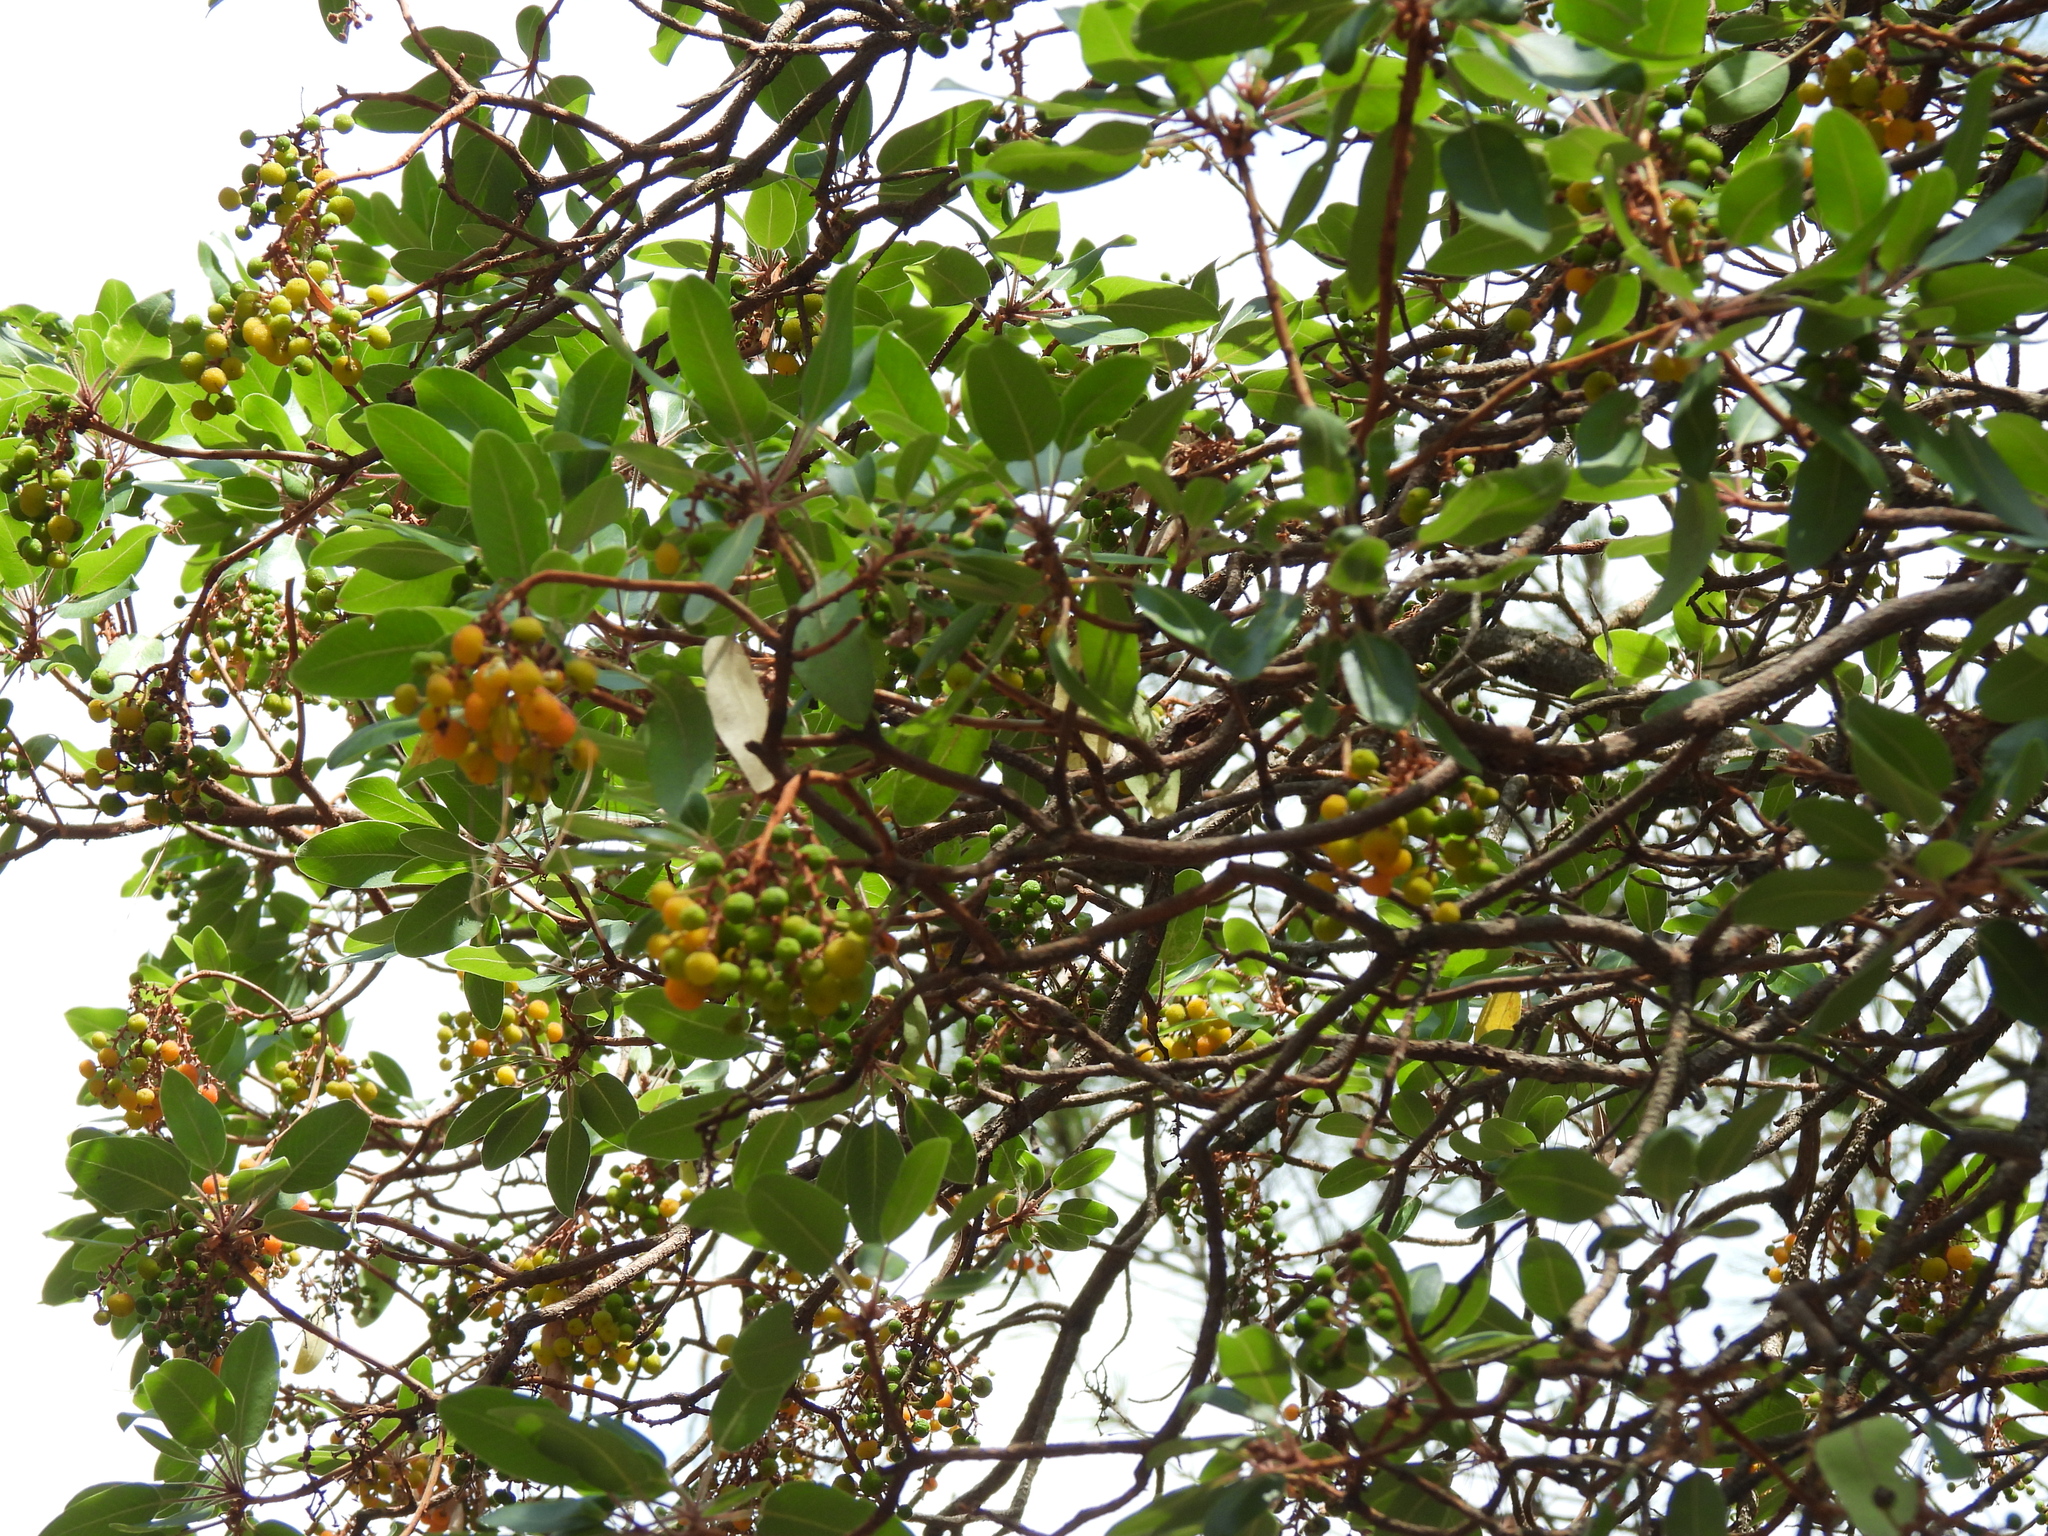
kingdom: Plantae
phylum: Tracheophyta
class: Magnoliopsida
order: Ericales
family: Ericaceae
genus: Arbutus
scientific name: Arbutus tessellata
